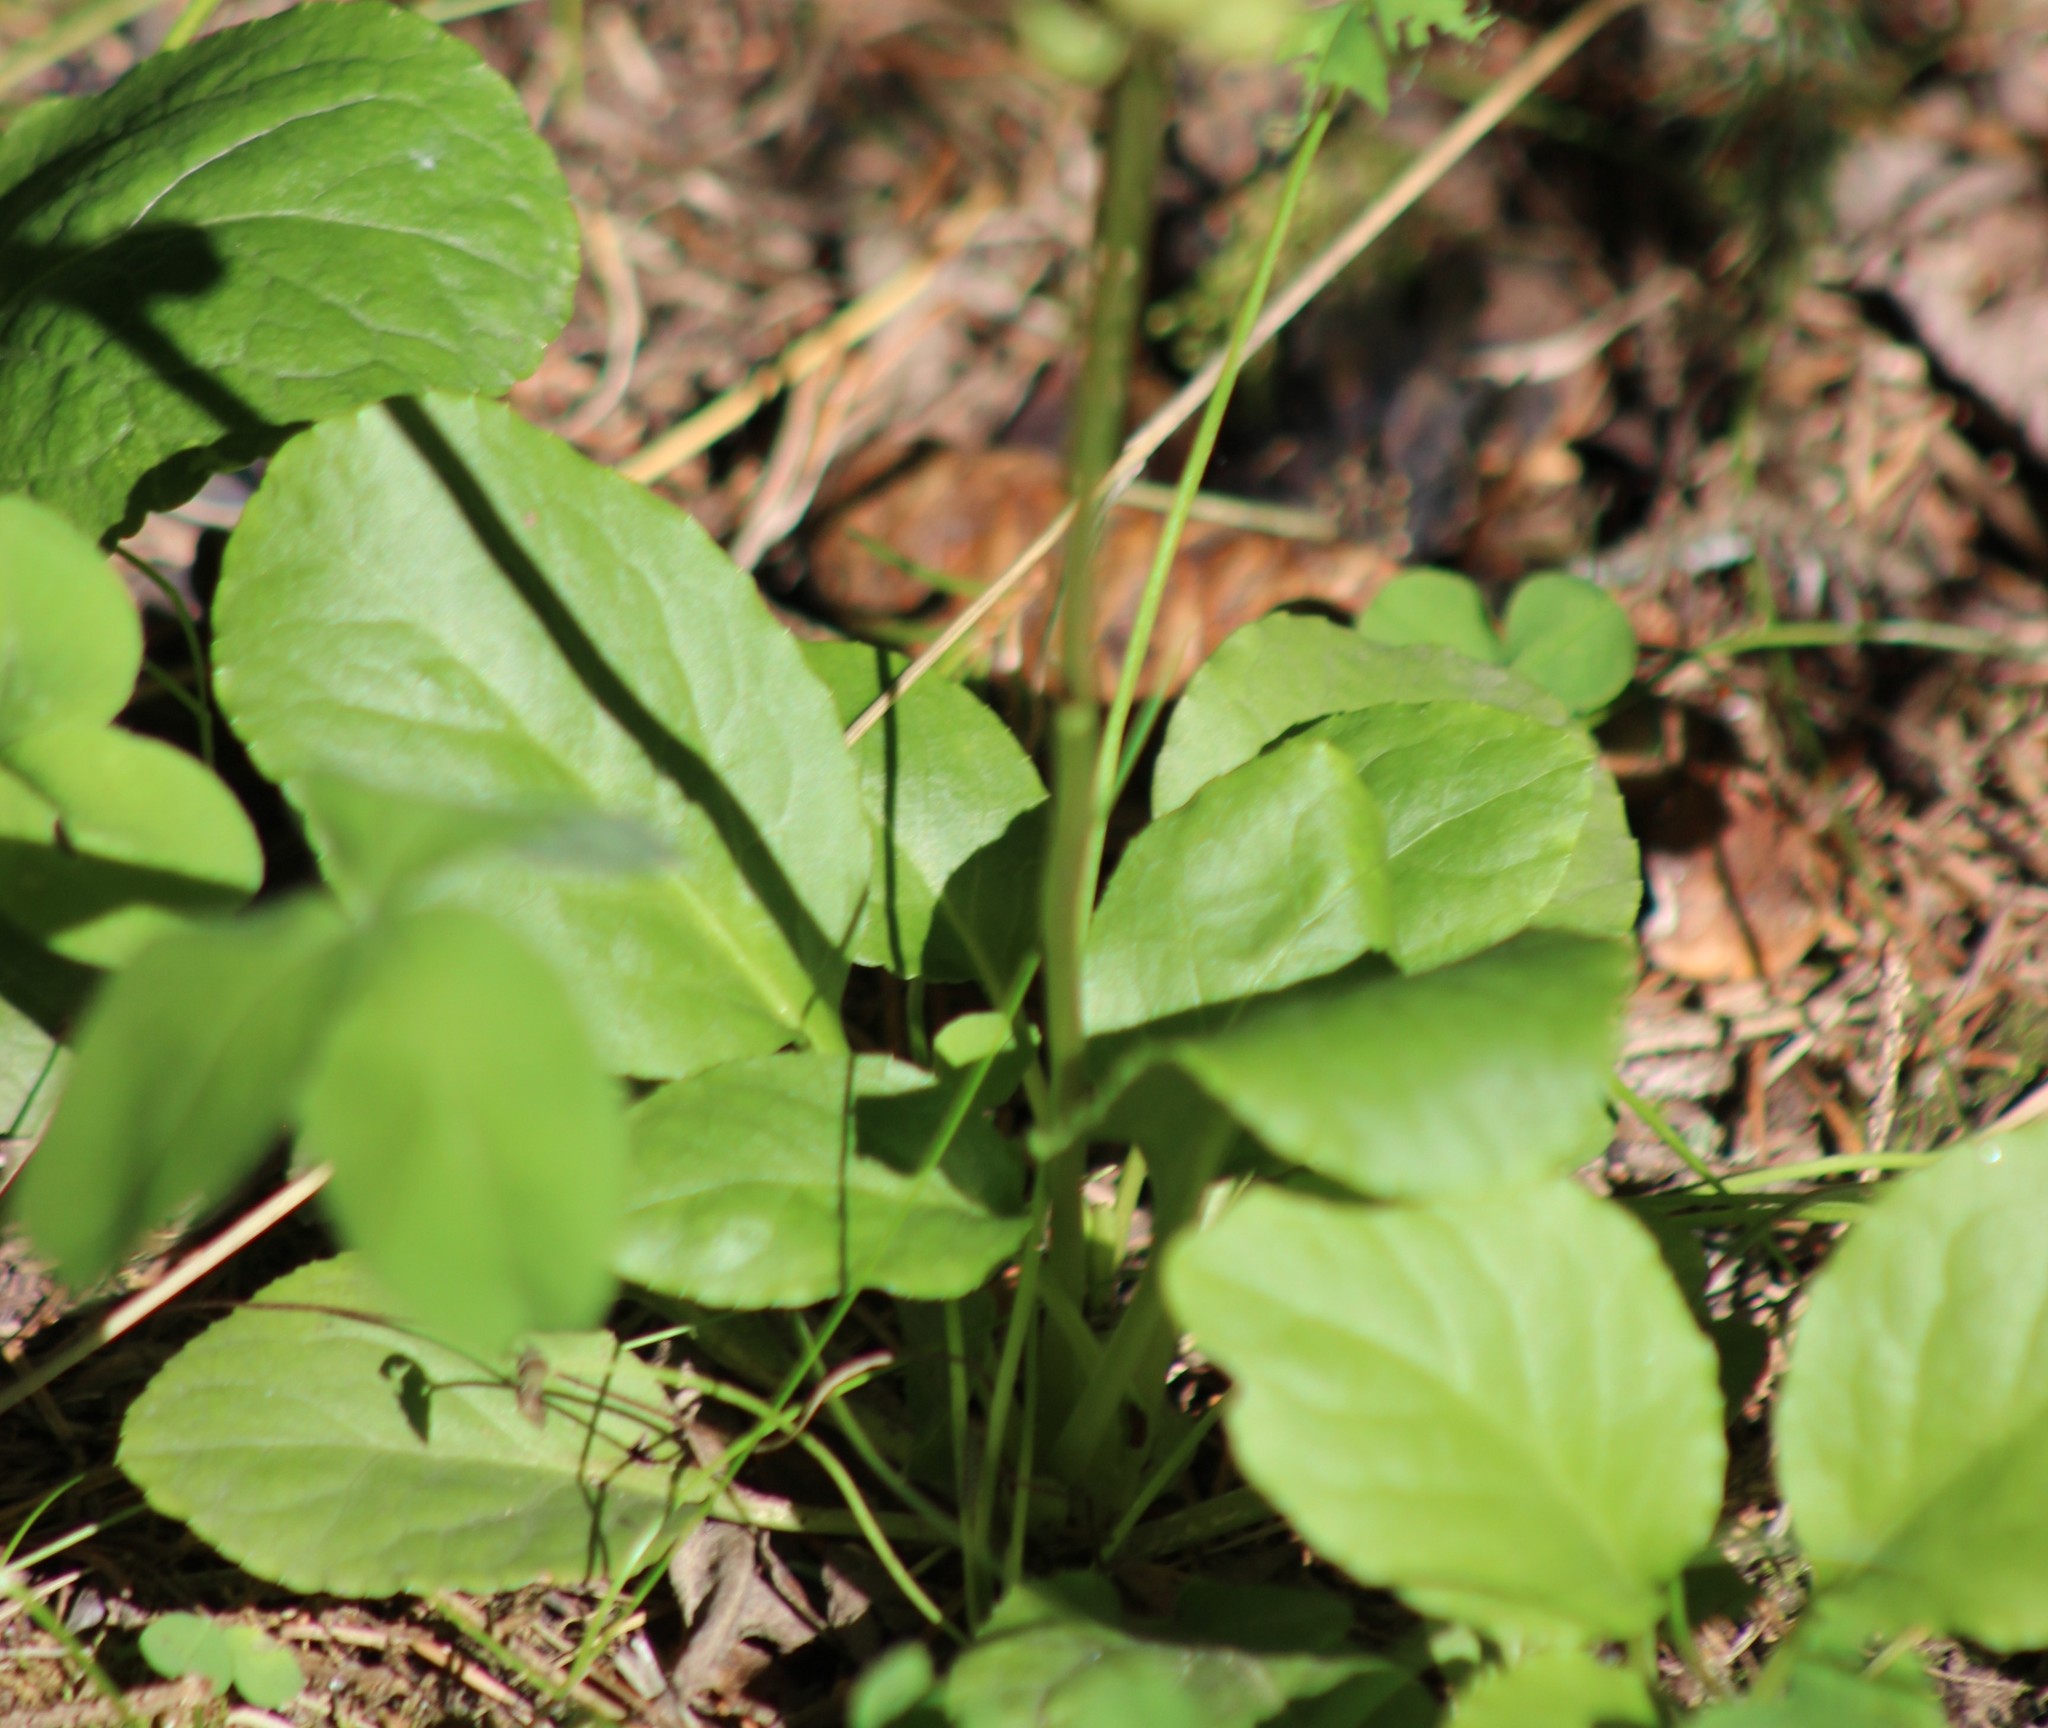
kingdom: Plantae
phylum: Tracheophyta
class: Magnoliopsida
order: Ericales
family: Ericaceae
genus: Pyrola
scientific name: Pyrola minor
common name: Common wintergreen
